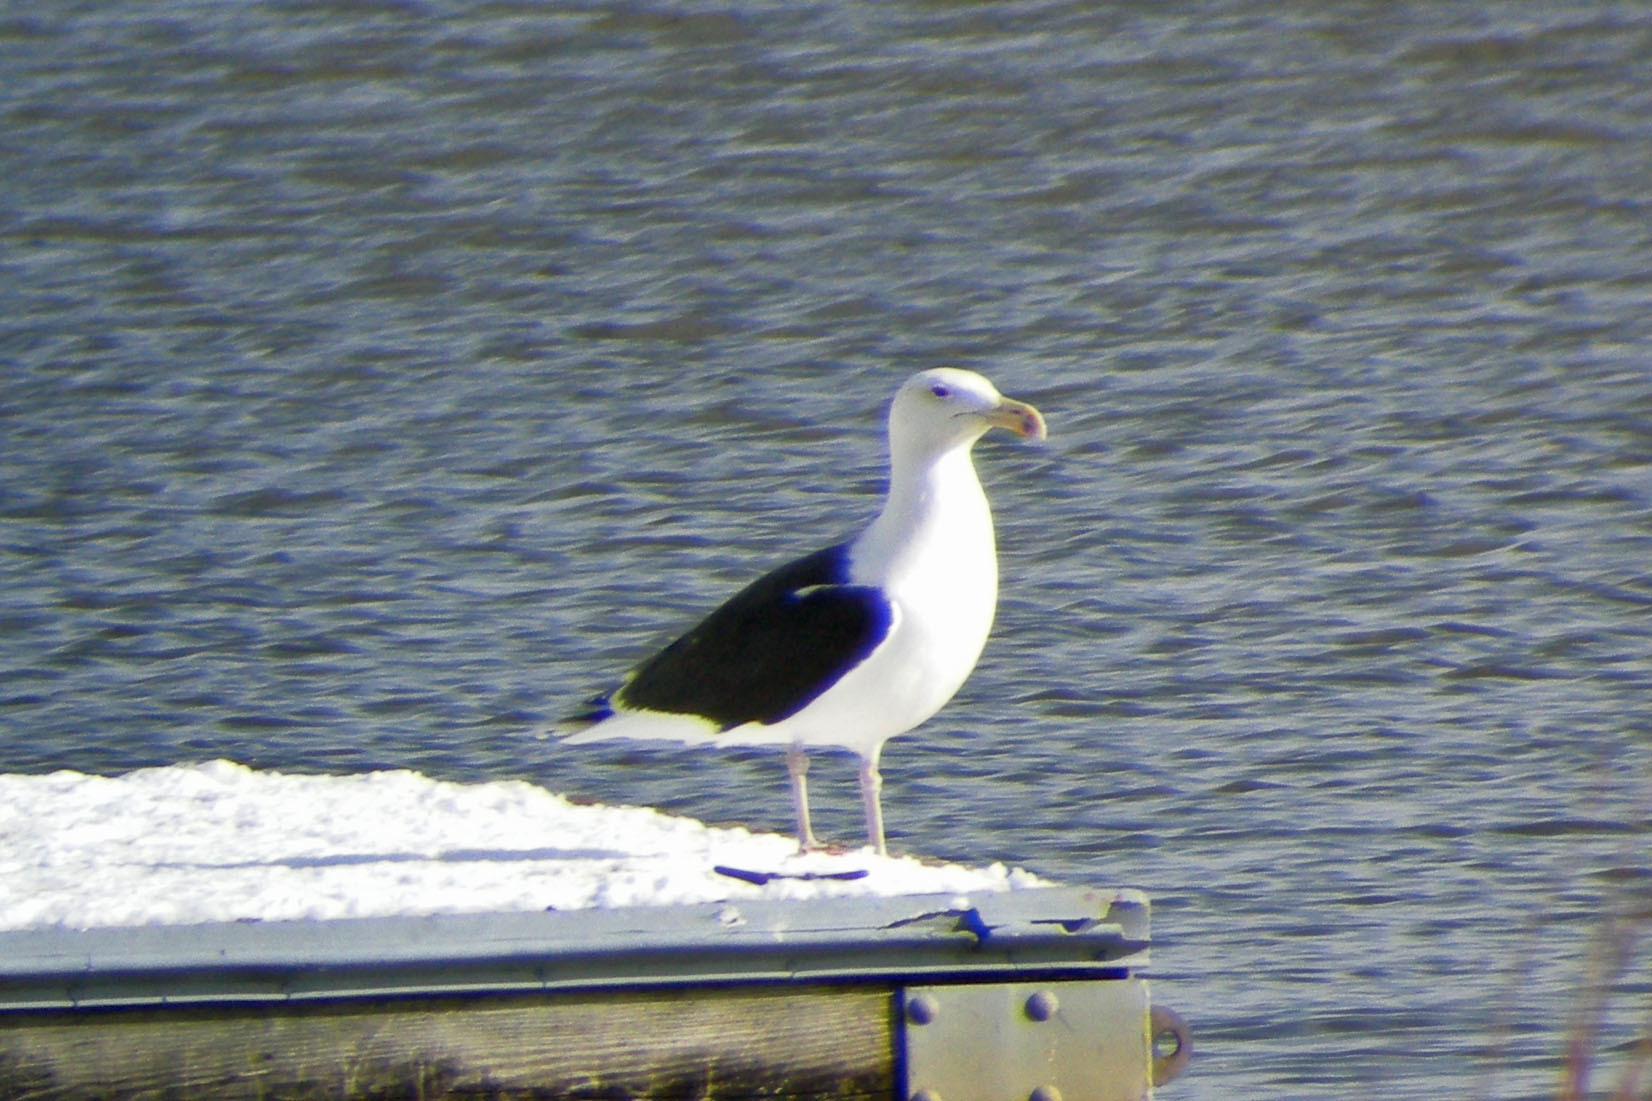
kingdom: Animalia
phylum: Chordata
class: Aves
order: Charadriiformes
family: Laridae
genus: Larus
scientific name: Larus marinus
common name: Great black-backed gull
